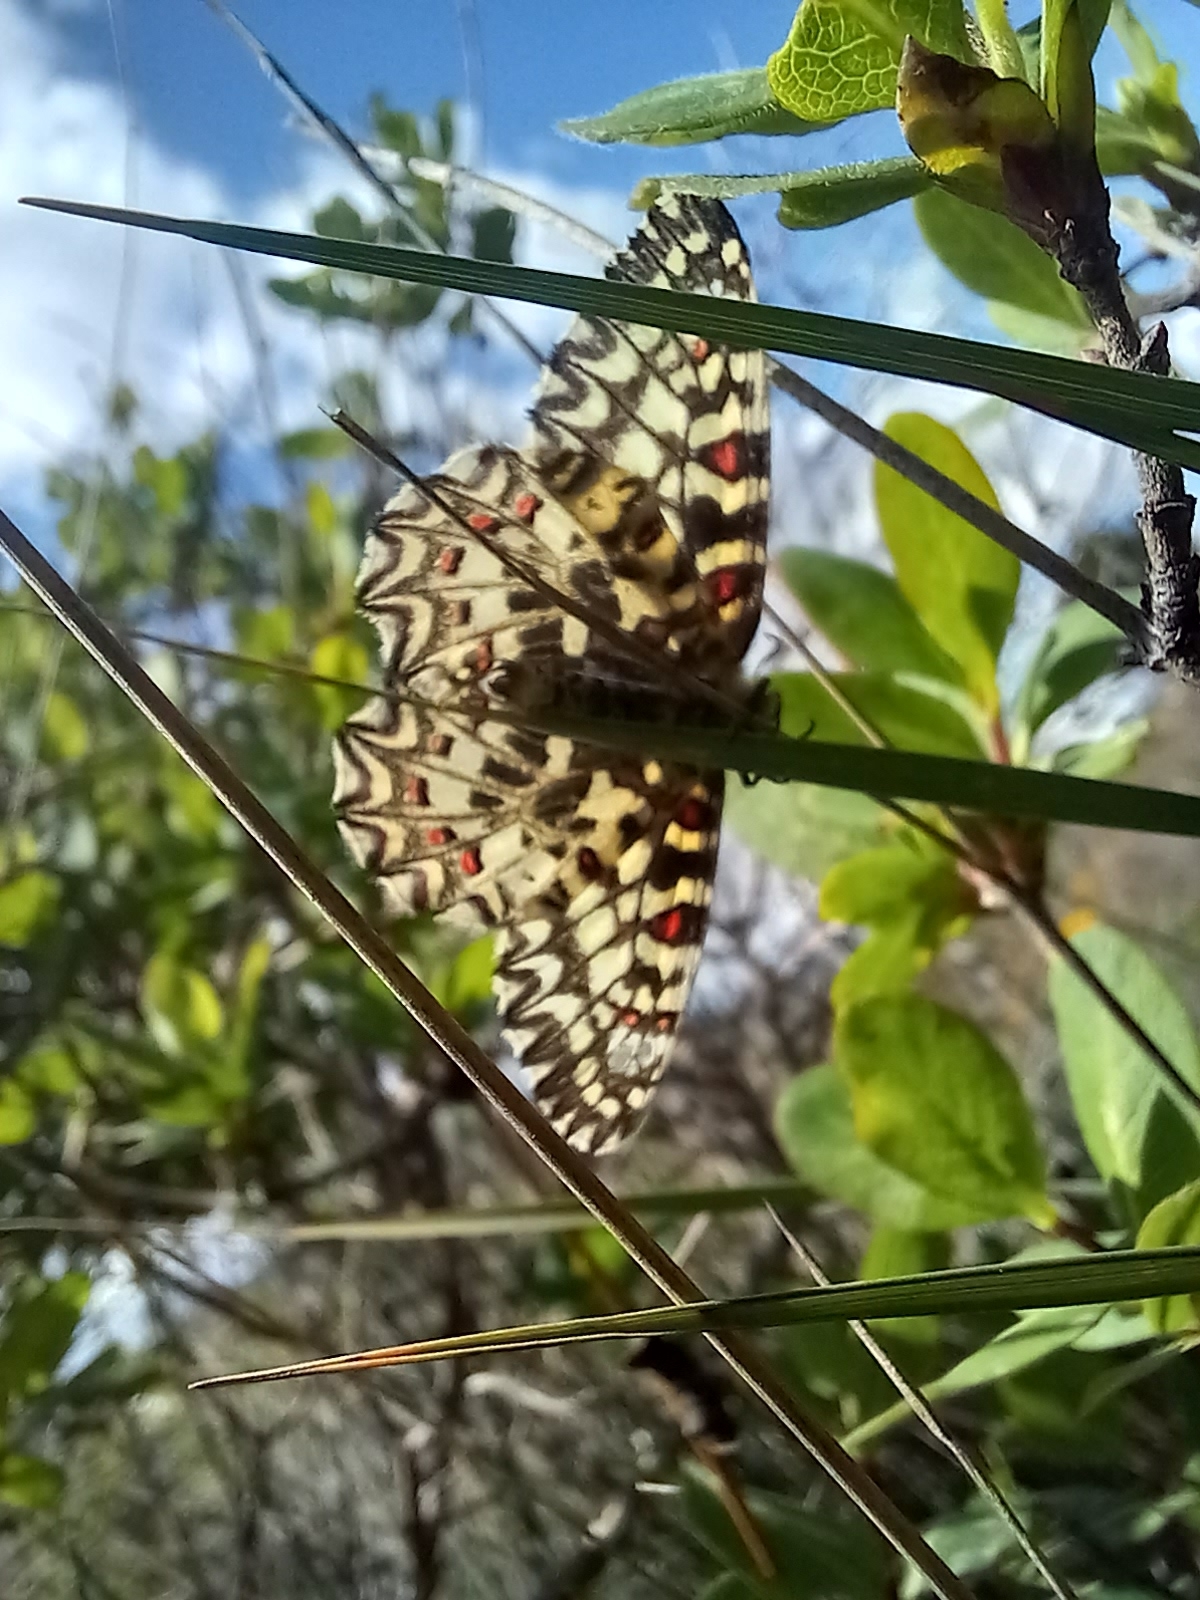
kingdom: Animalia
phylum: Arthropoda
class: Insecta
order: Lepidoptera
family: Papilionidae
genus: Zerynthia
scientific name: Zerynthia rumina
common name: Spanish festoon
